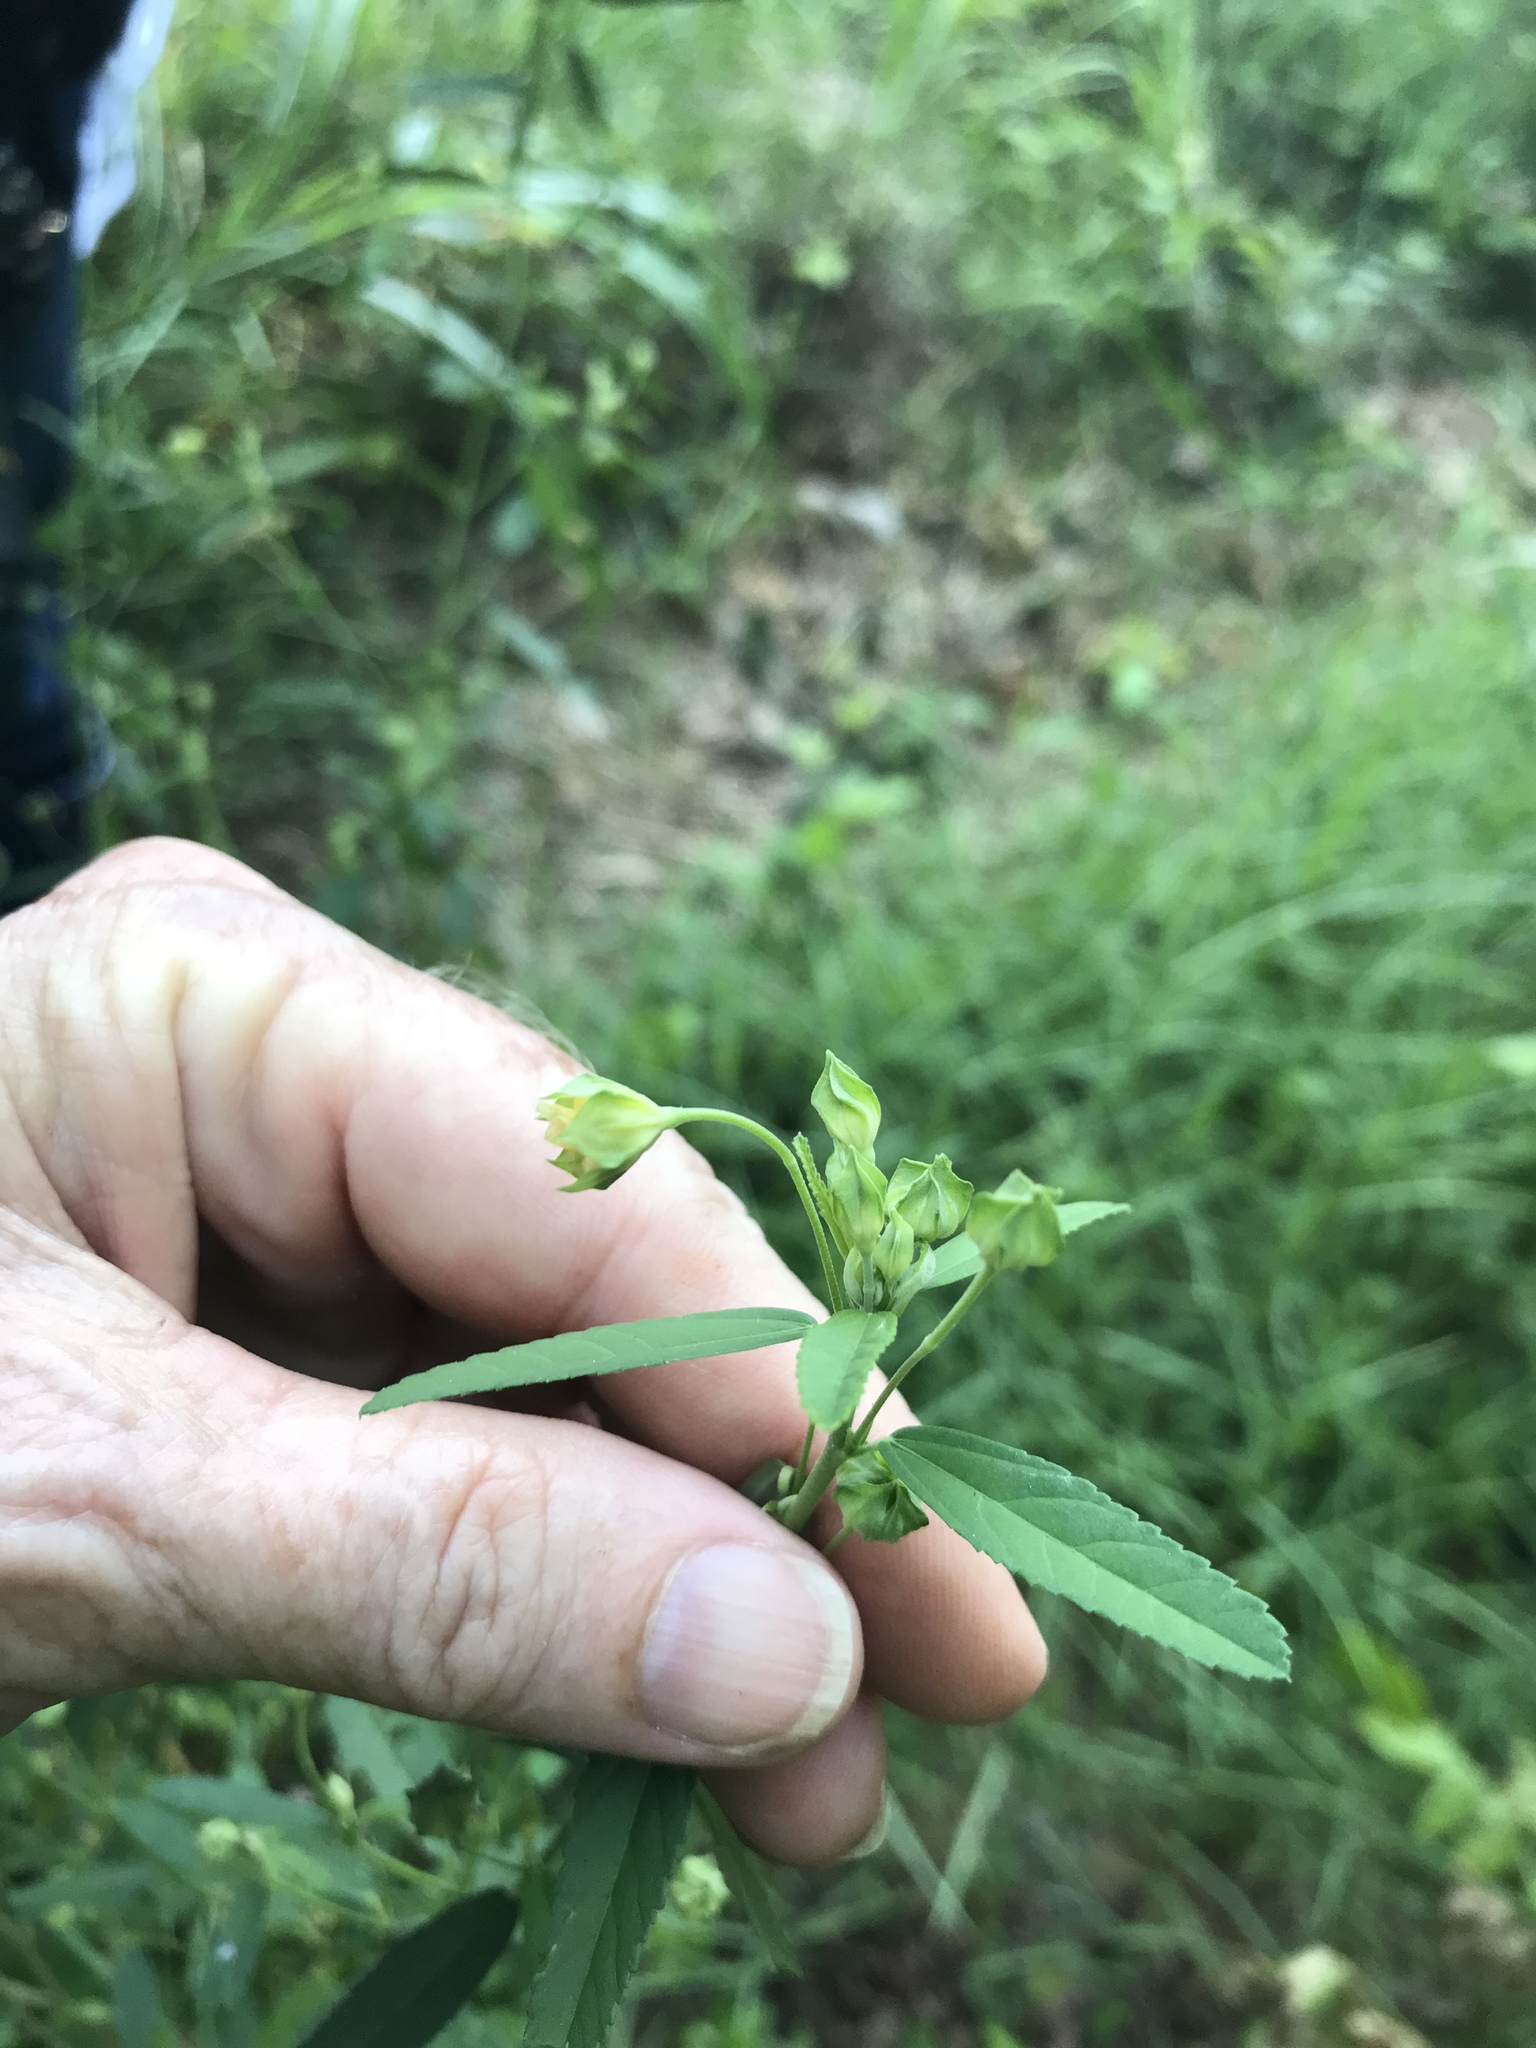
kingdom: Plantae
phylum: Tracheophyta
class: Magnoliopsida
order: Malvales
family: Malvaceae
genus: Sida
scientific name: Sida rhombifolia
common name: Queensland-hemp
